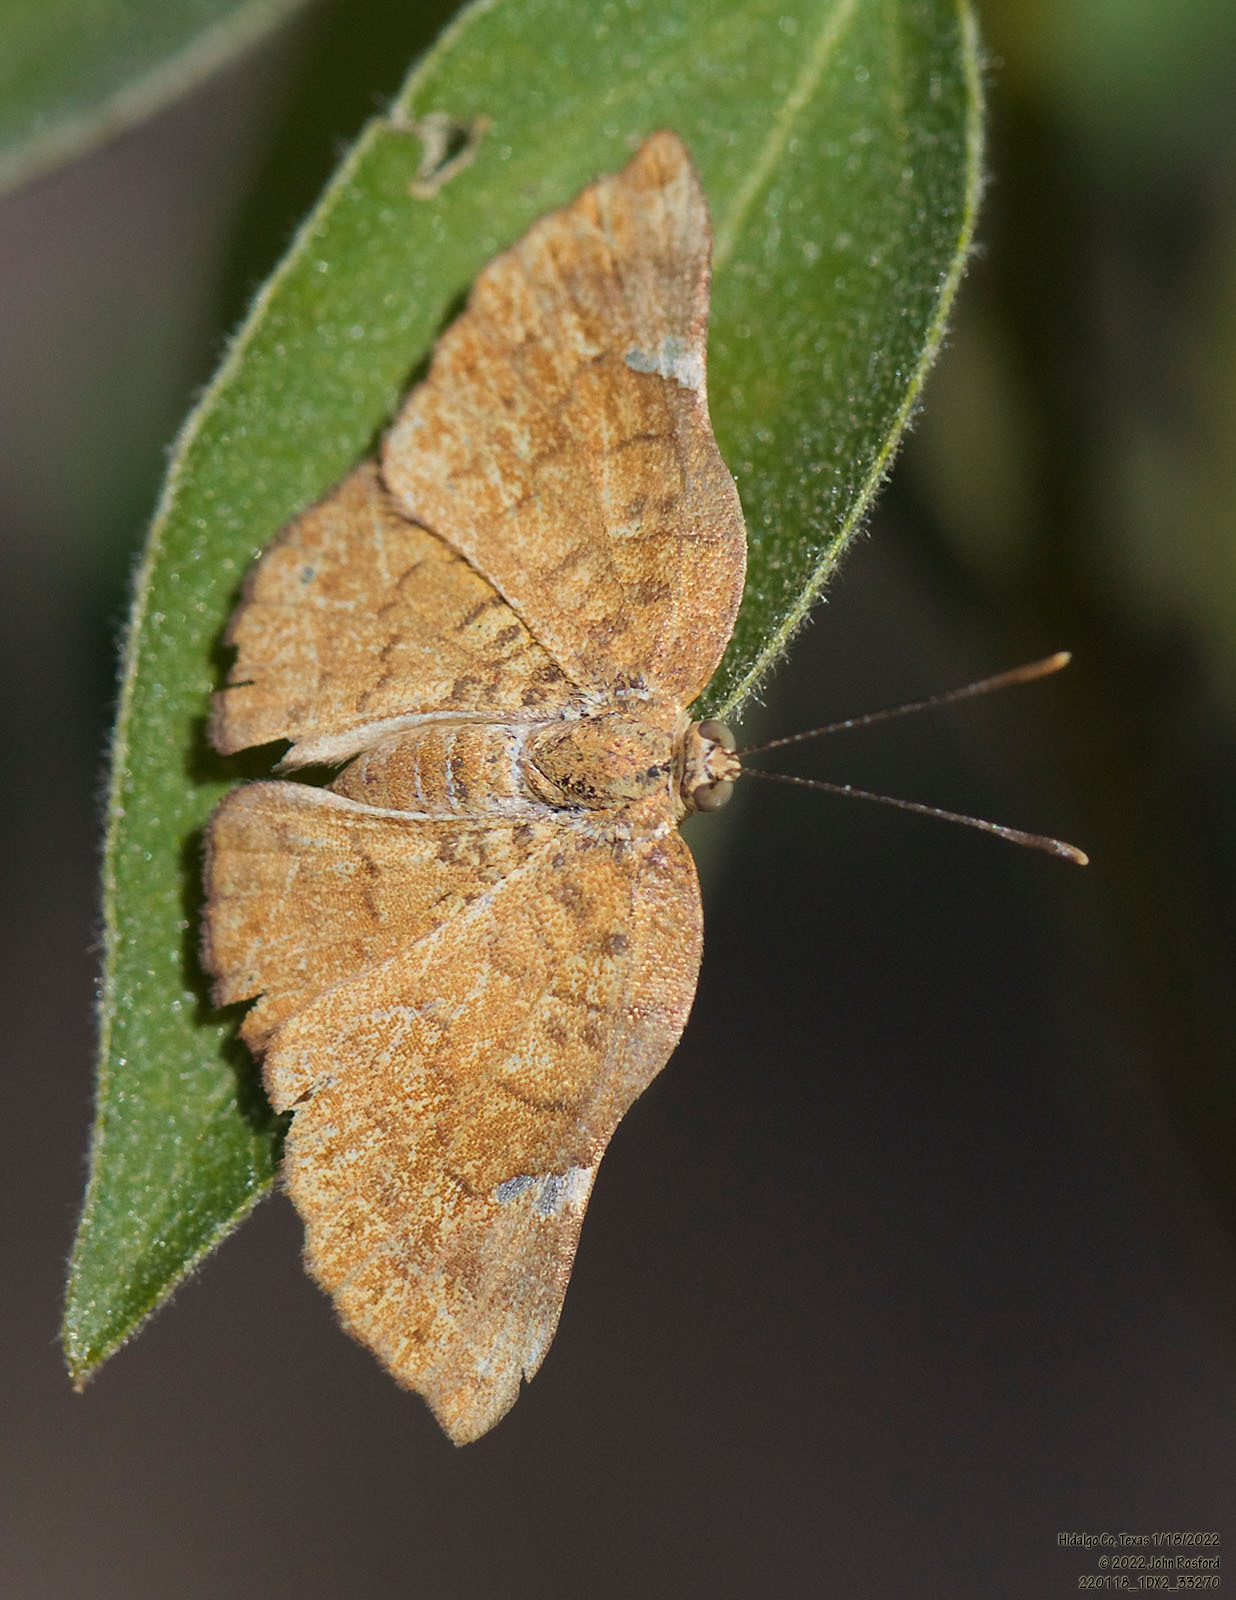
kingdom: Animalia
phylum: Arthropoda
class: Insecta
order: Lepidoptera
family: Riodinidae
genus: Curvie
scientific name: Curvie emesia
